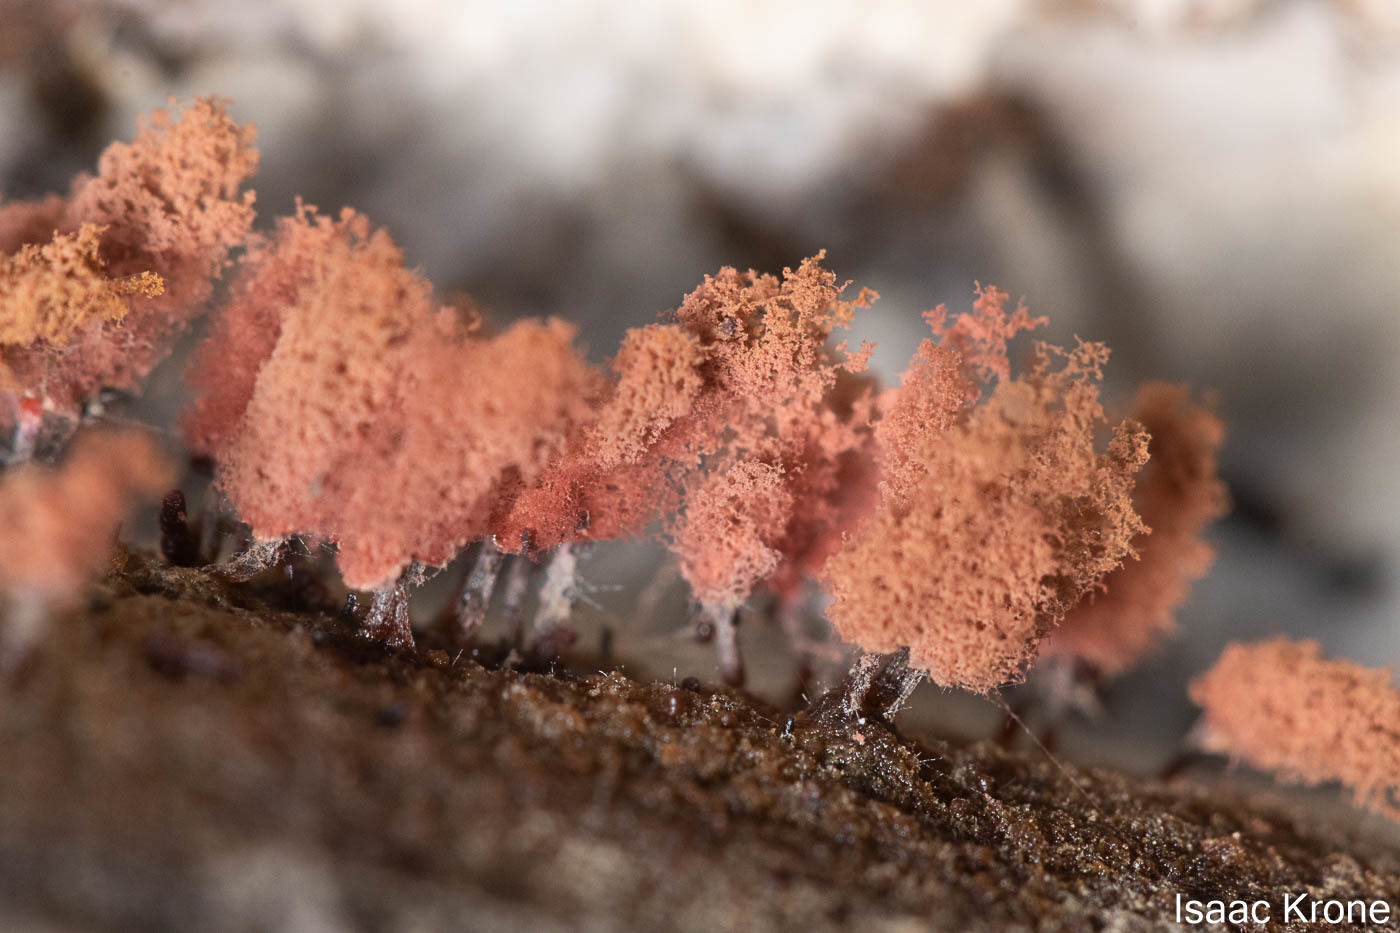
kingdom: Protozoa
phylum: Mycetozoa
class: Myxomycetes
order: Trichiales
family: Arcyriaceae
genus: Arcyria
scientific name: Arcyria denudata
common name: Carnival candy slime mold
